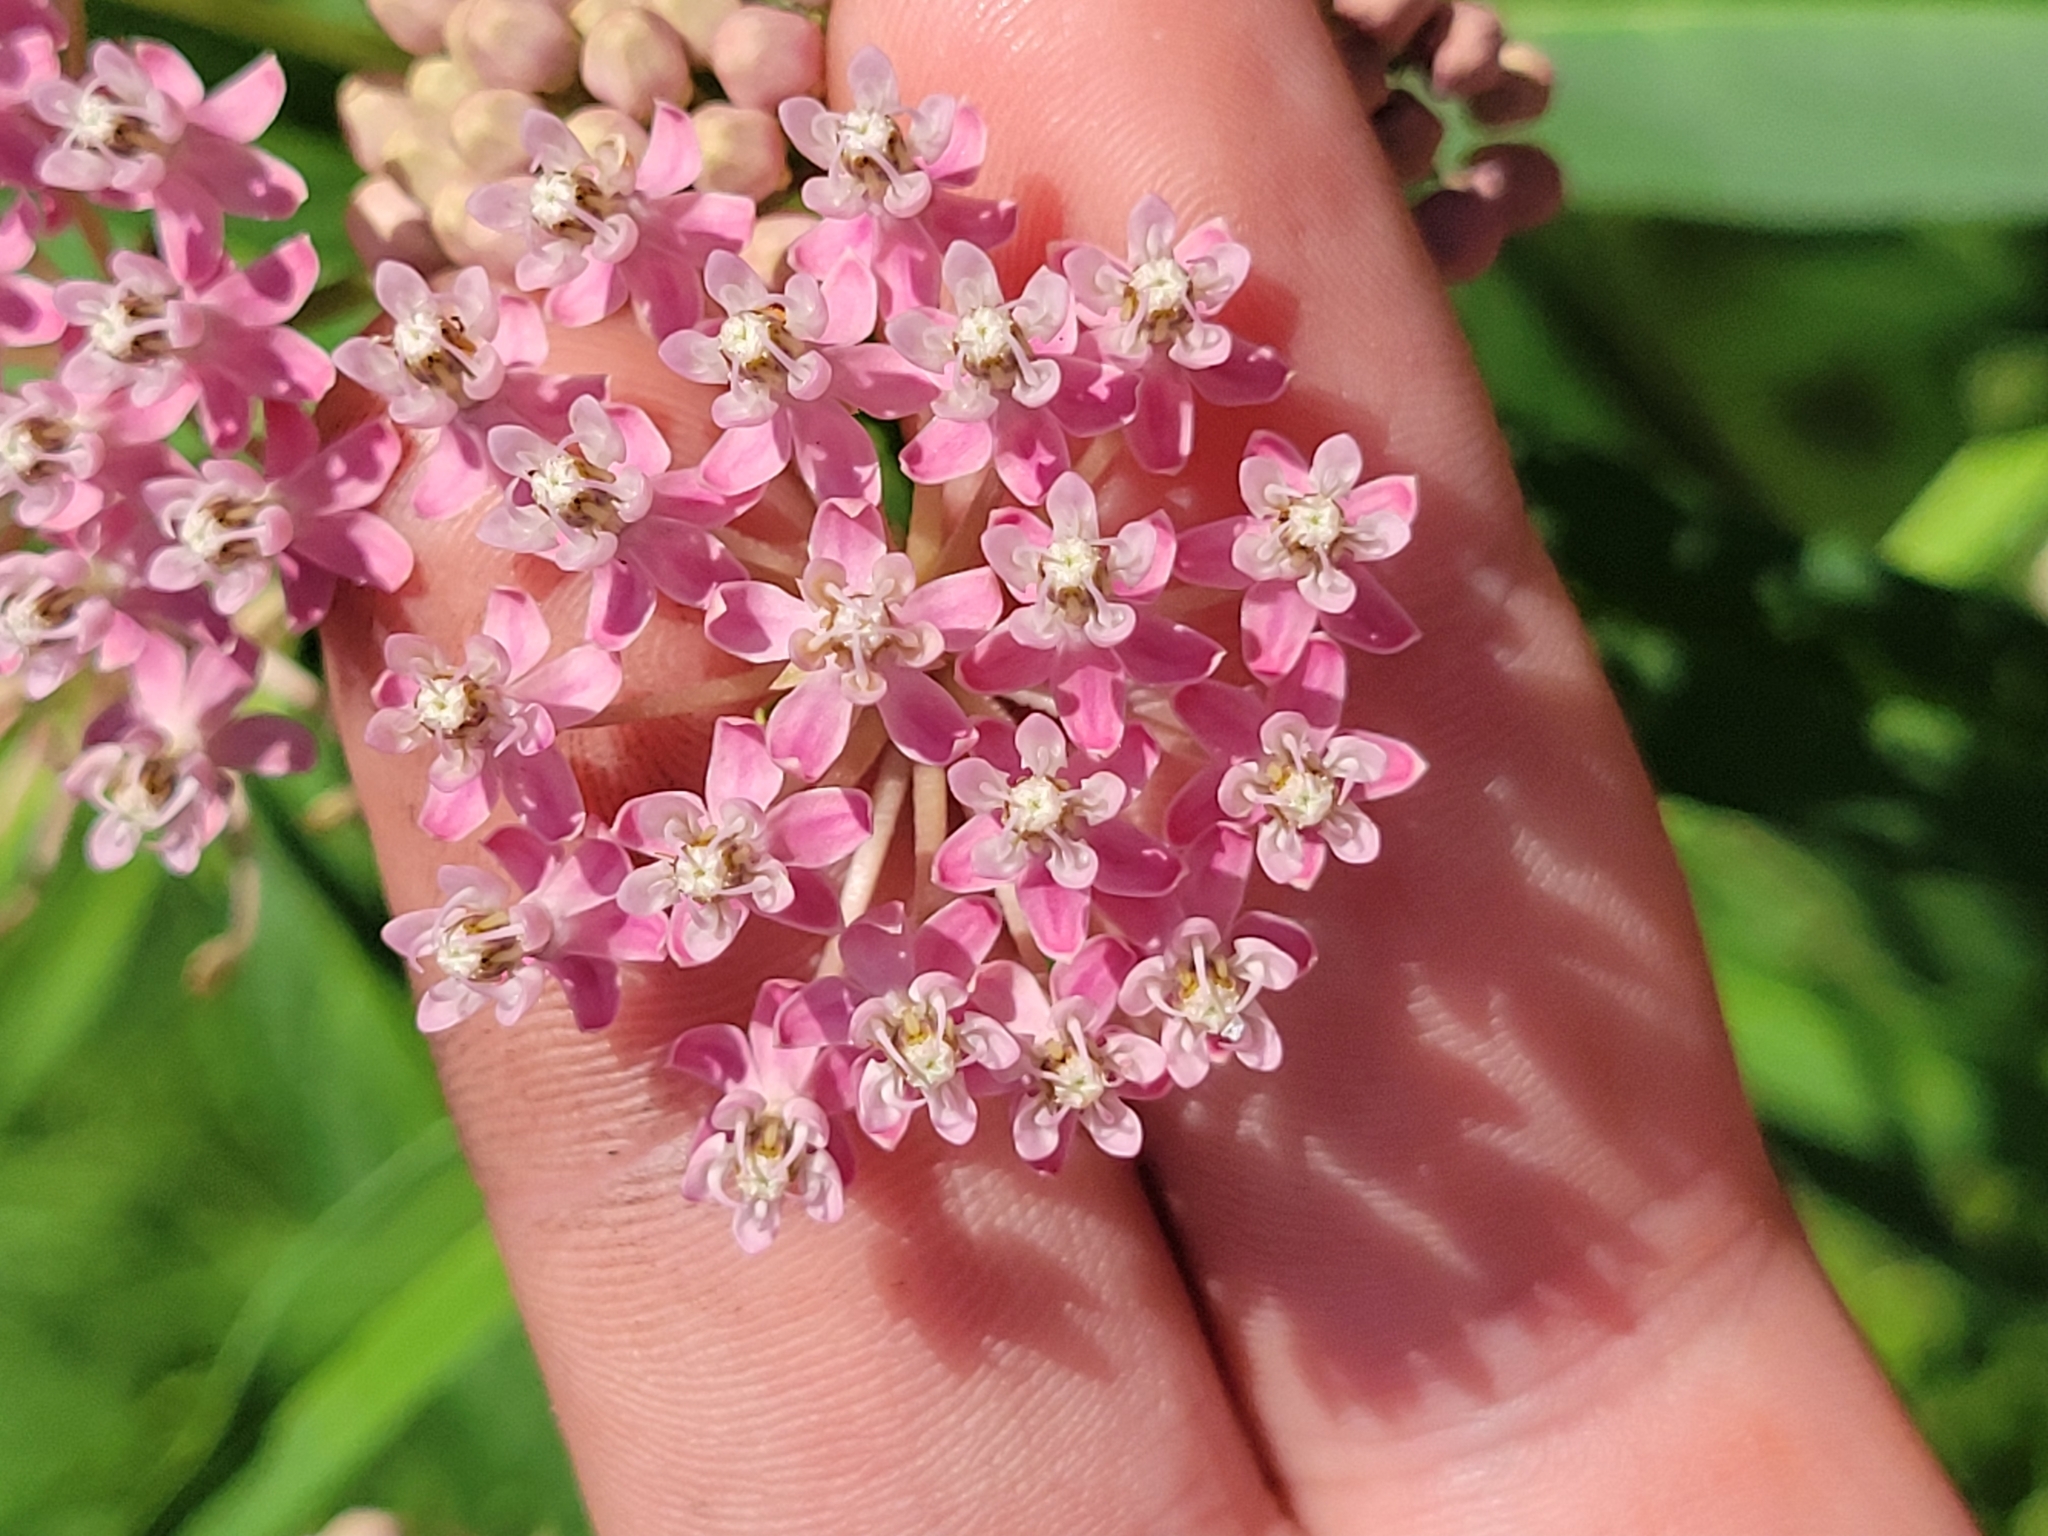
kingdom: Plantae
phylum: Tracheophyta
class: Magnoliopsida
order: Gentianales
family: Apocynaceae
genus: Asclepias
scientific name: Asclepias incarnata
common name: Swamp milkweed
